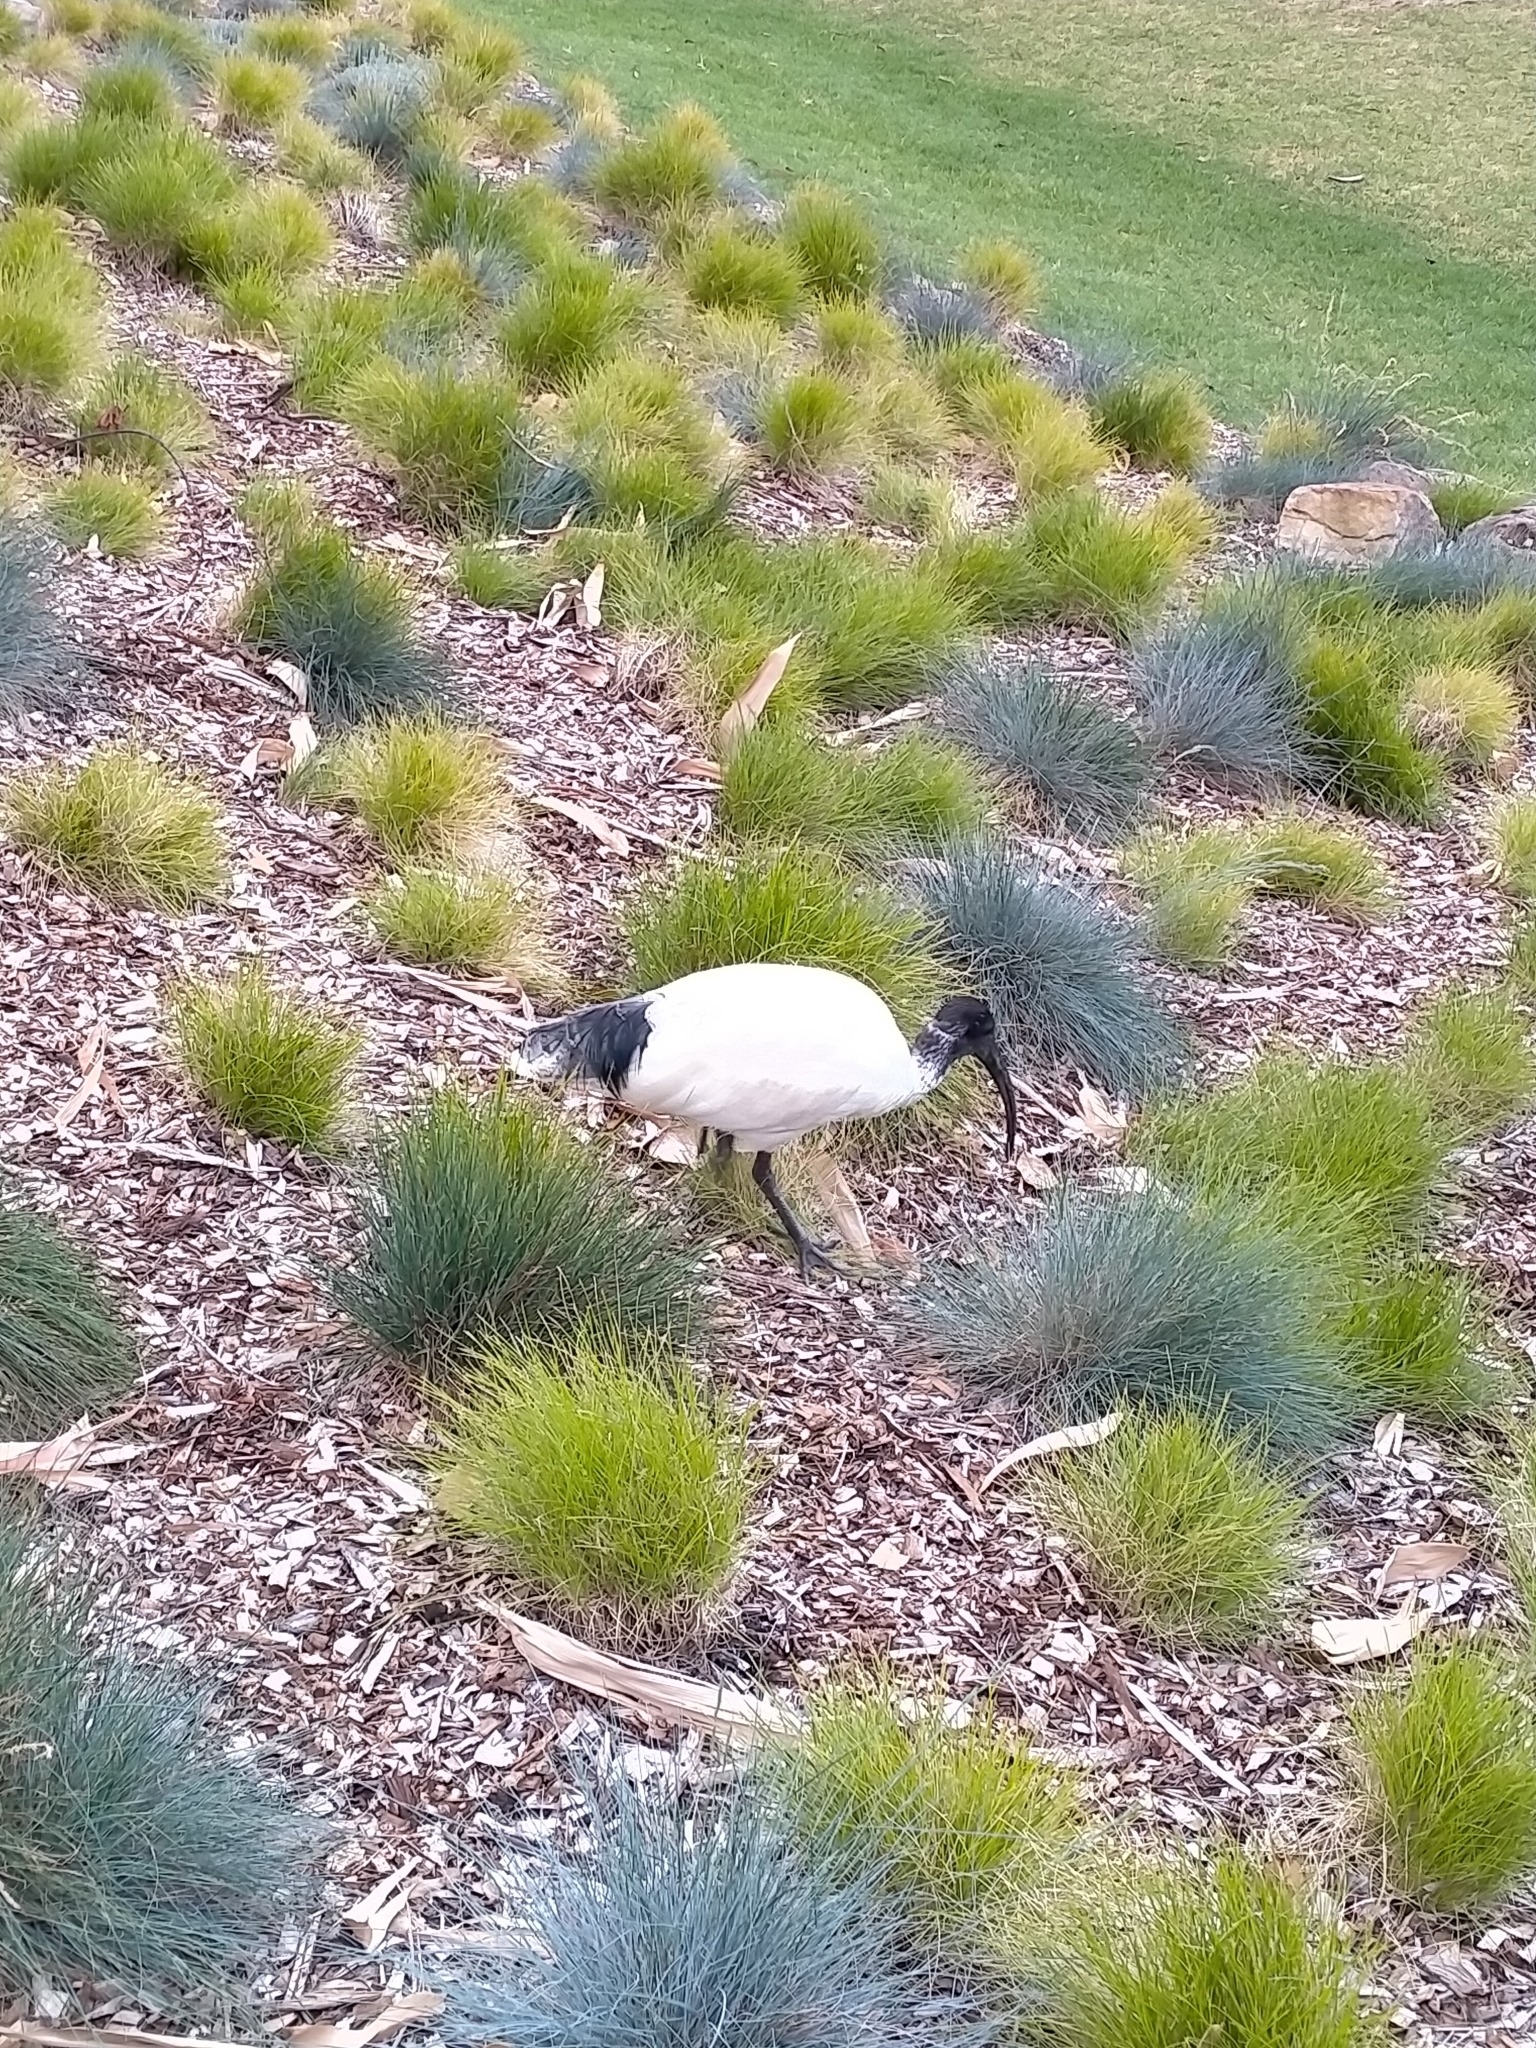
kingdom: Animalia
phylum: Chordata
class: Aves
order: Pelecaniformes
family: Threskiornithidae
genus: Threskiornis
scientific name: Threskiornis molucca
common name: Australian white ibis
